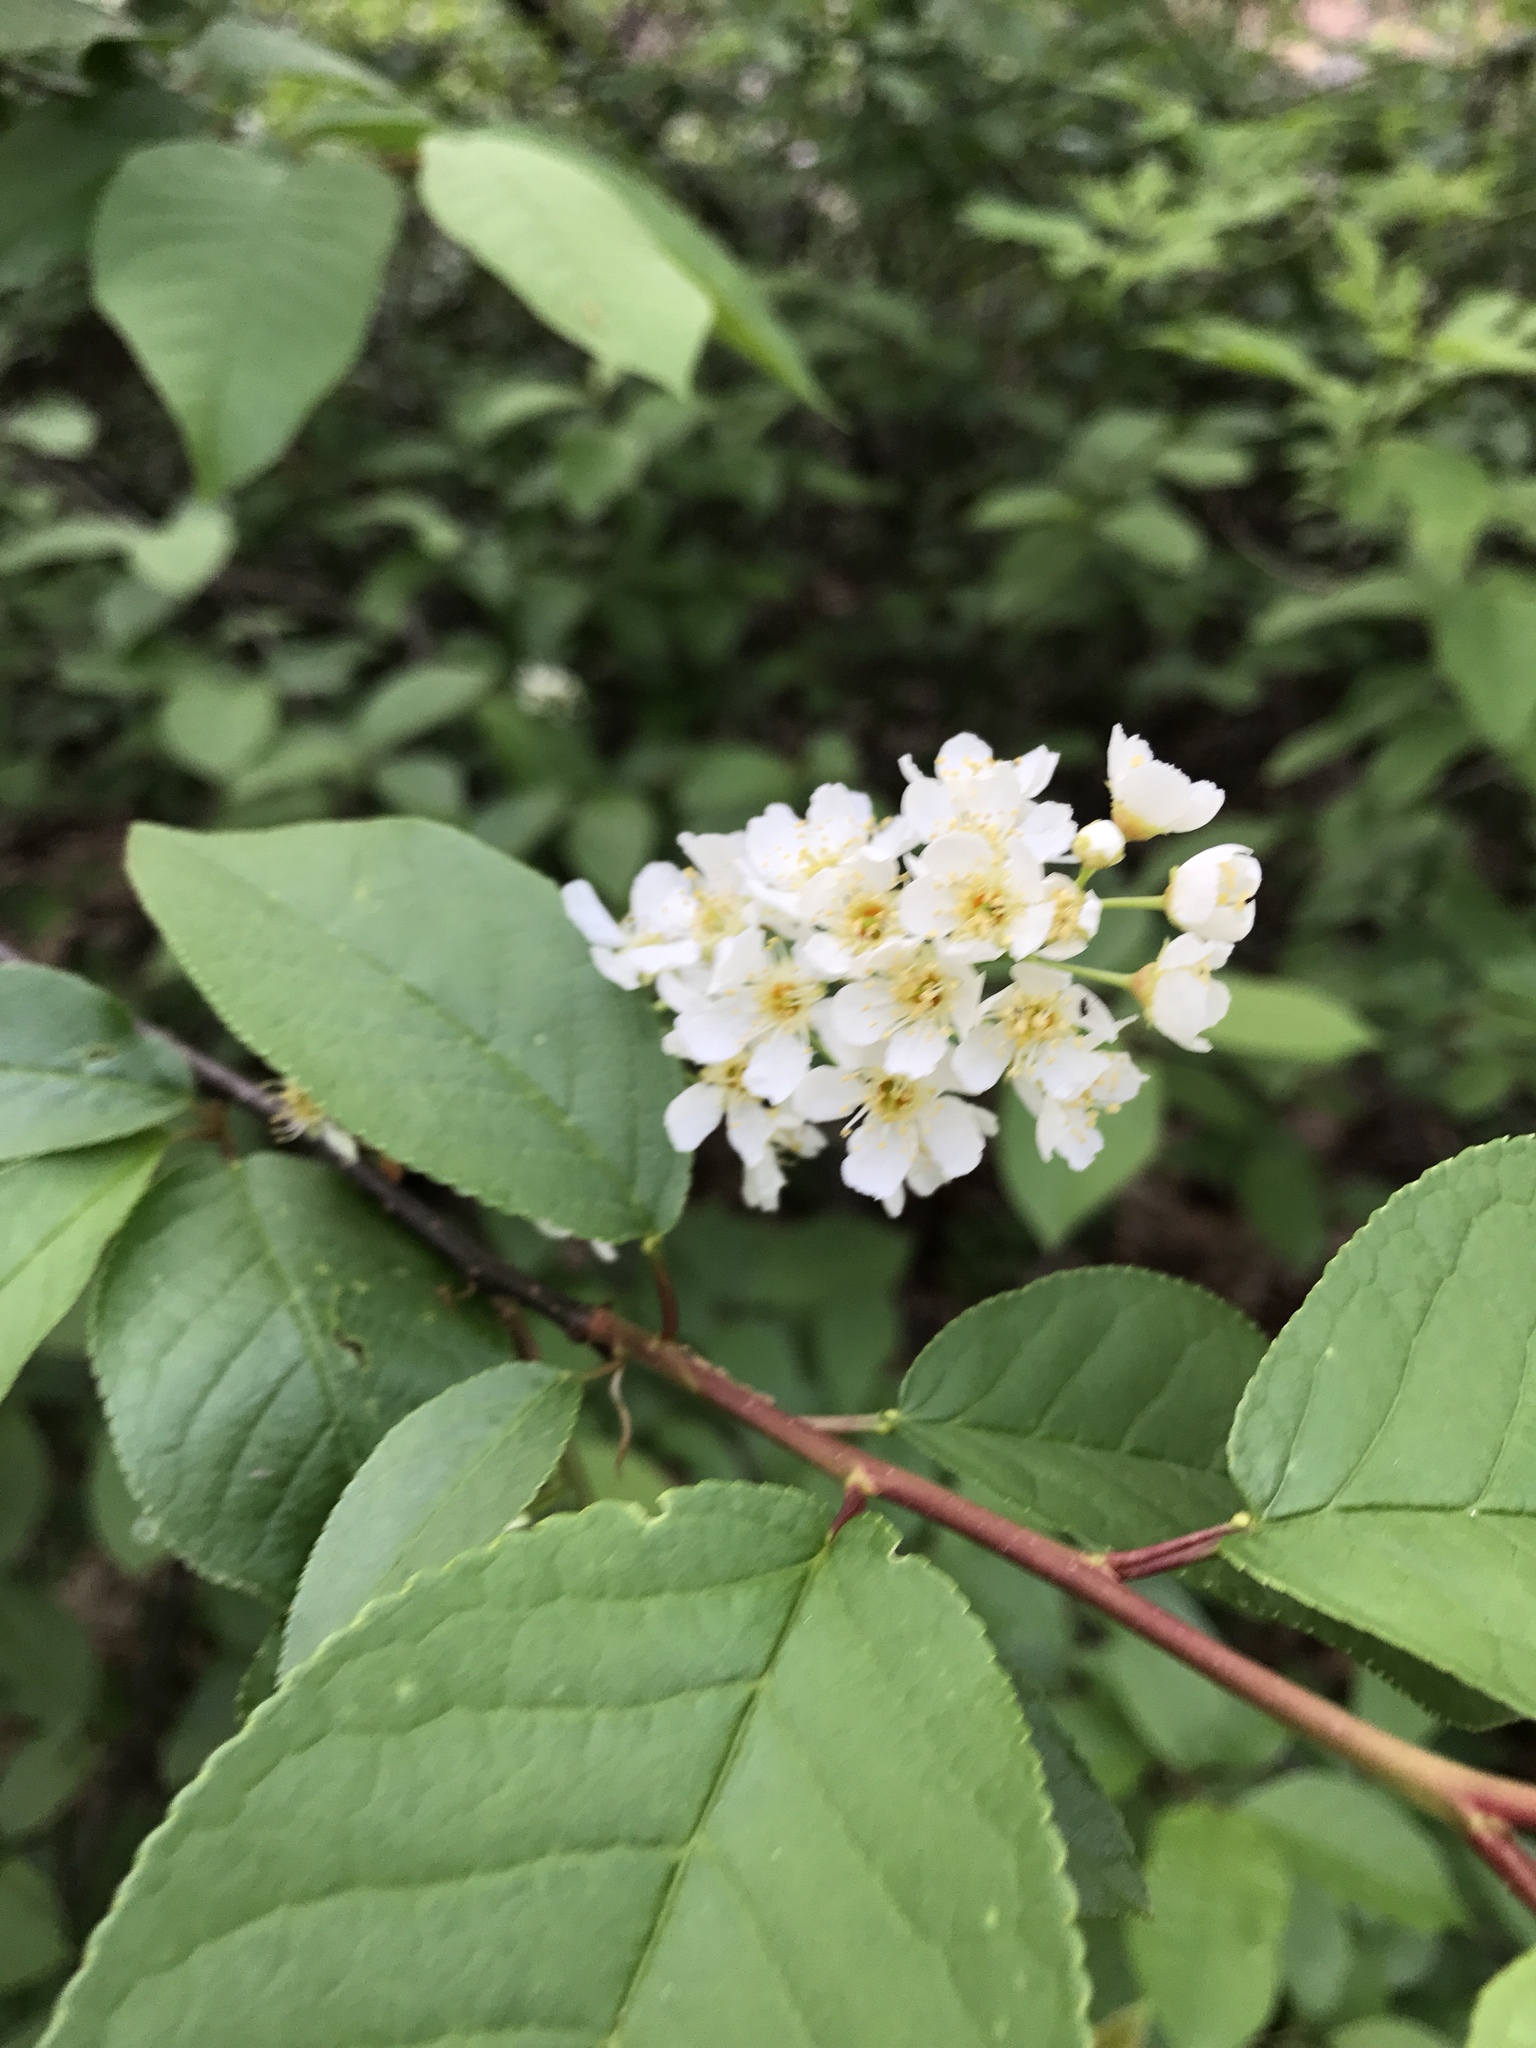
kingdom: Plantae
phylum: Tracheophyta
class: Magnoliopsida
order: Rosales
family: Rosaceae
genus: Prunus
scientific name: Prunus serotina
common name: Black cherry
